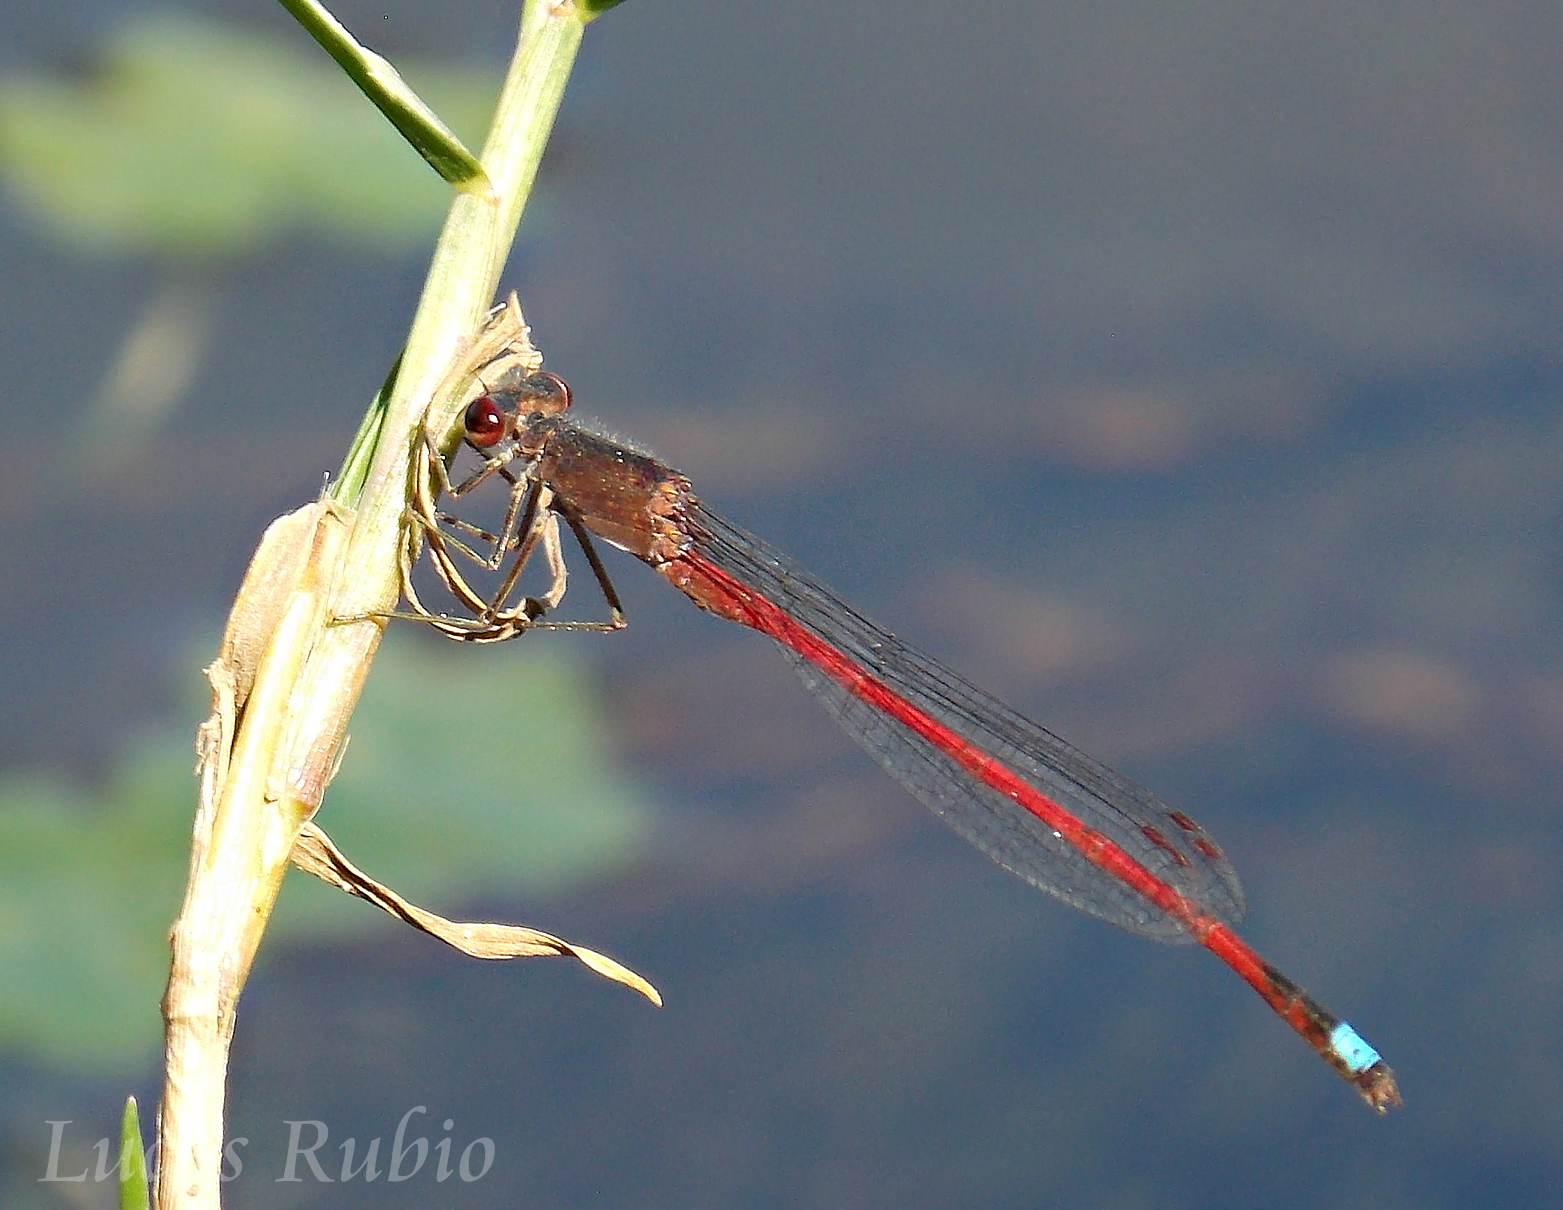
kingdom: Animalia
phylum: Arthropoda
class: Insecta
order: Odonata
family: Coenagrionidae
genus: Oxyagrion
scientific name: Oxyagrion rubidum
